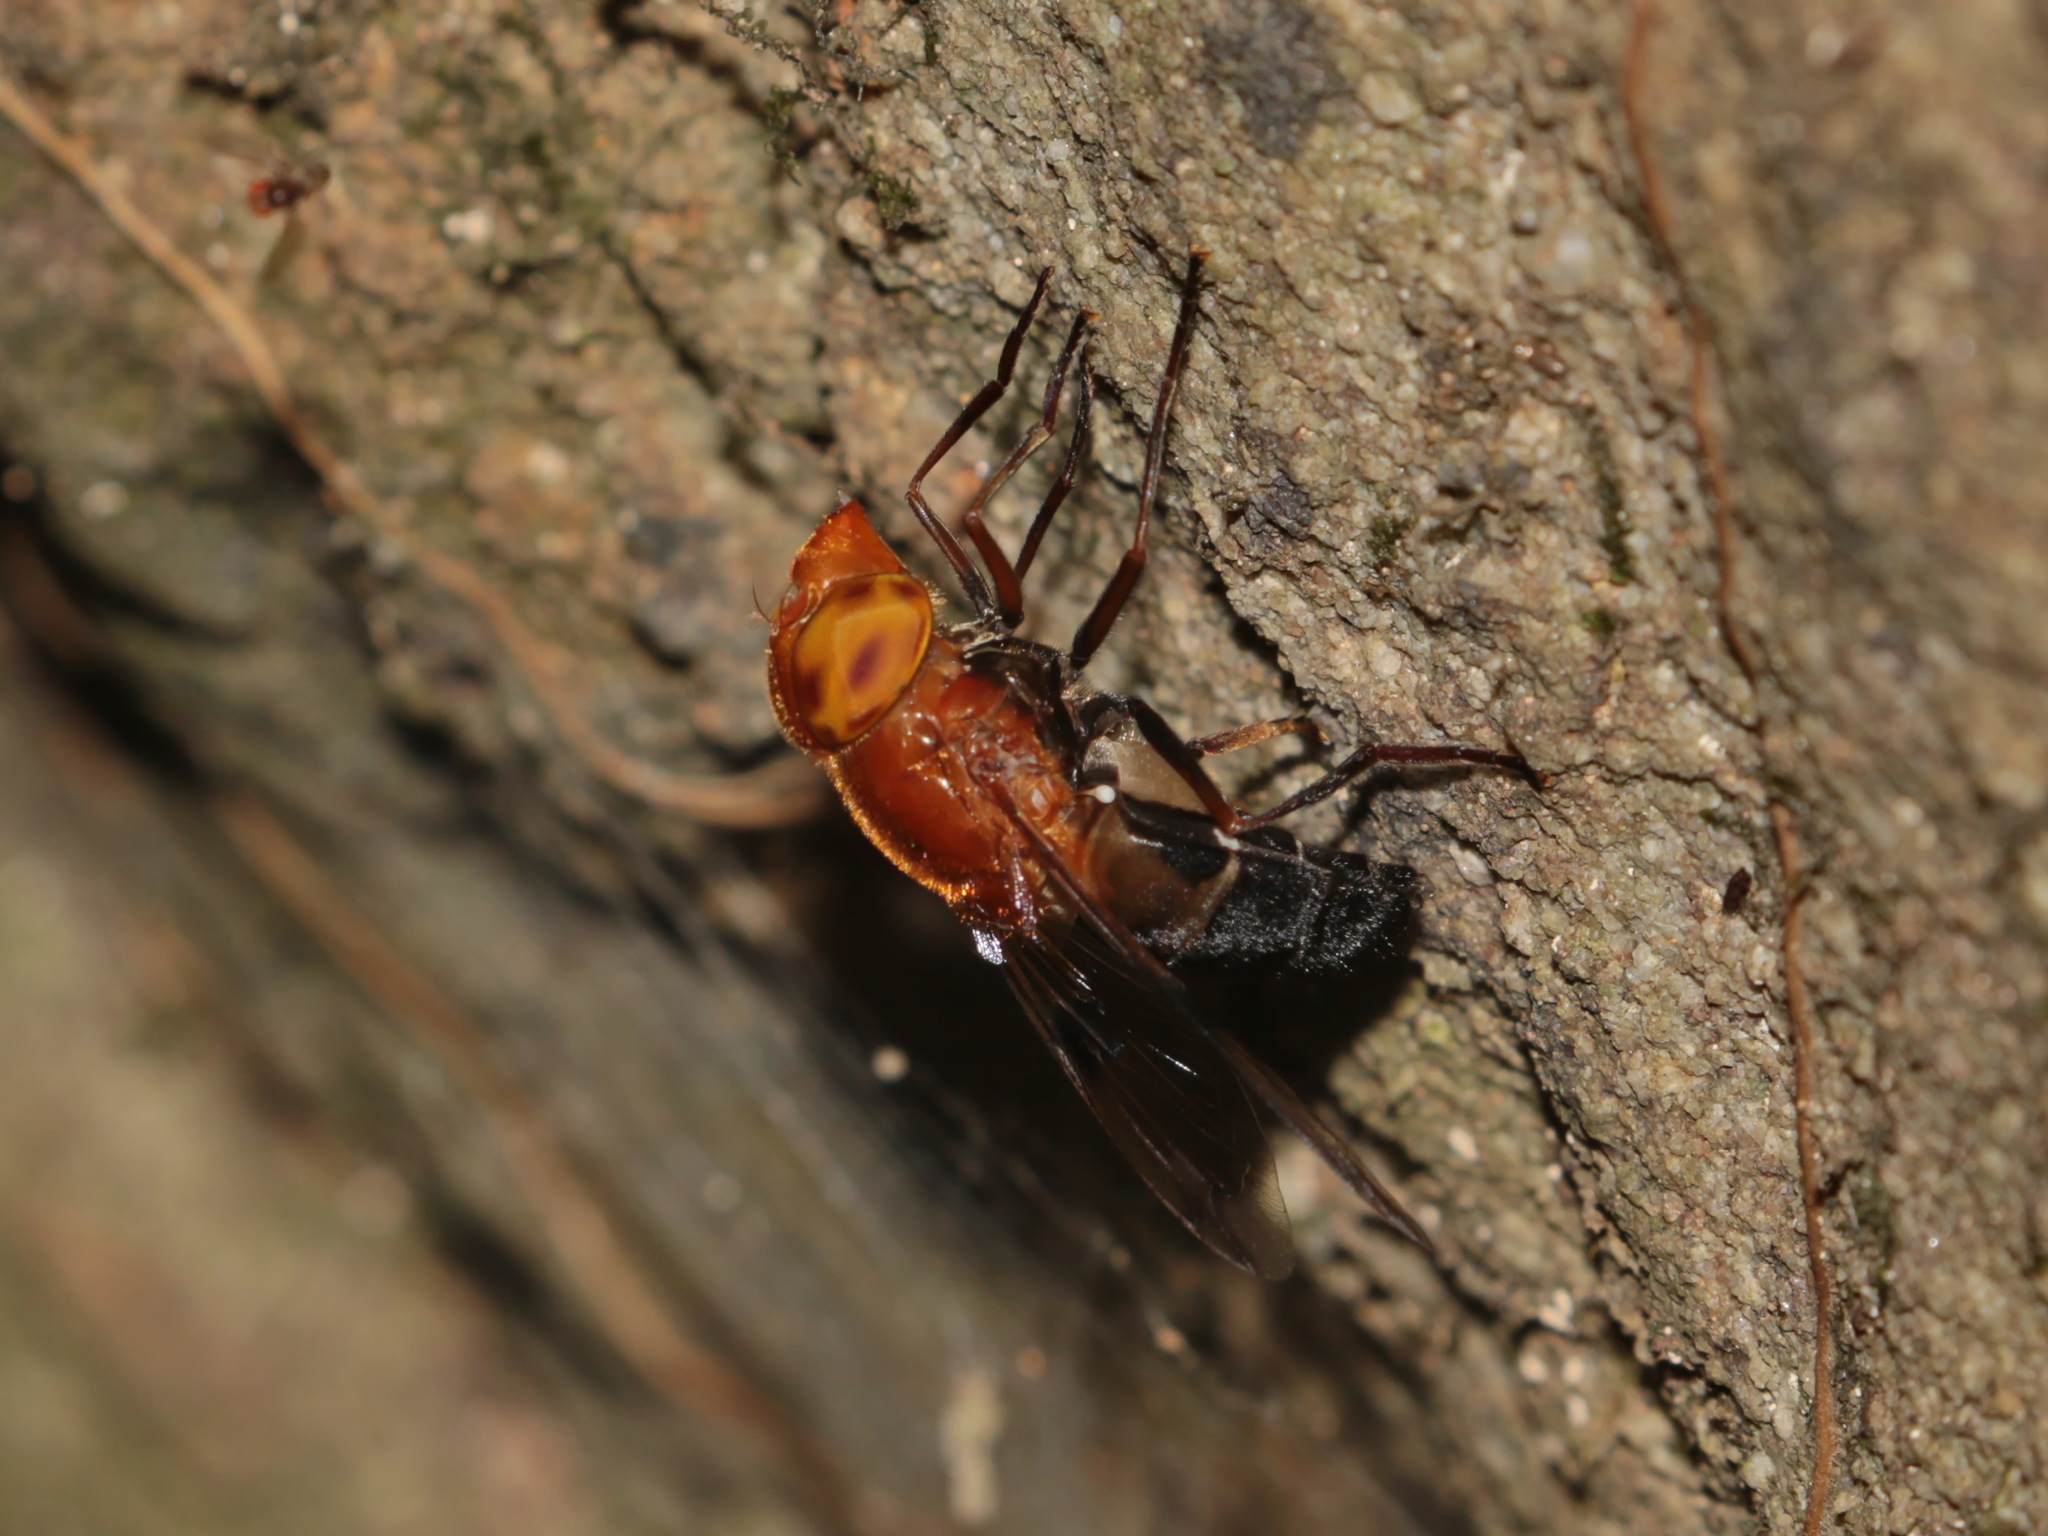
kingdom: Animalia
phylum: Arthropoda
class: Insecta
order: Diptera
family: Syrphidae
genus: Volucella
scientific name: Volucella linearis
